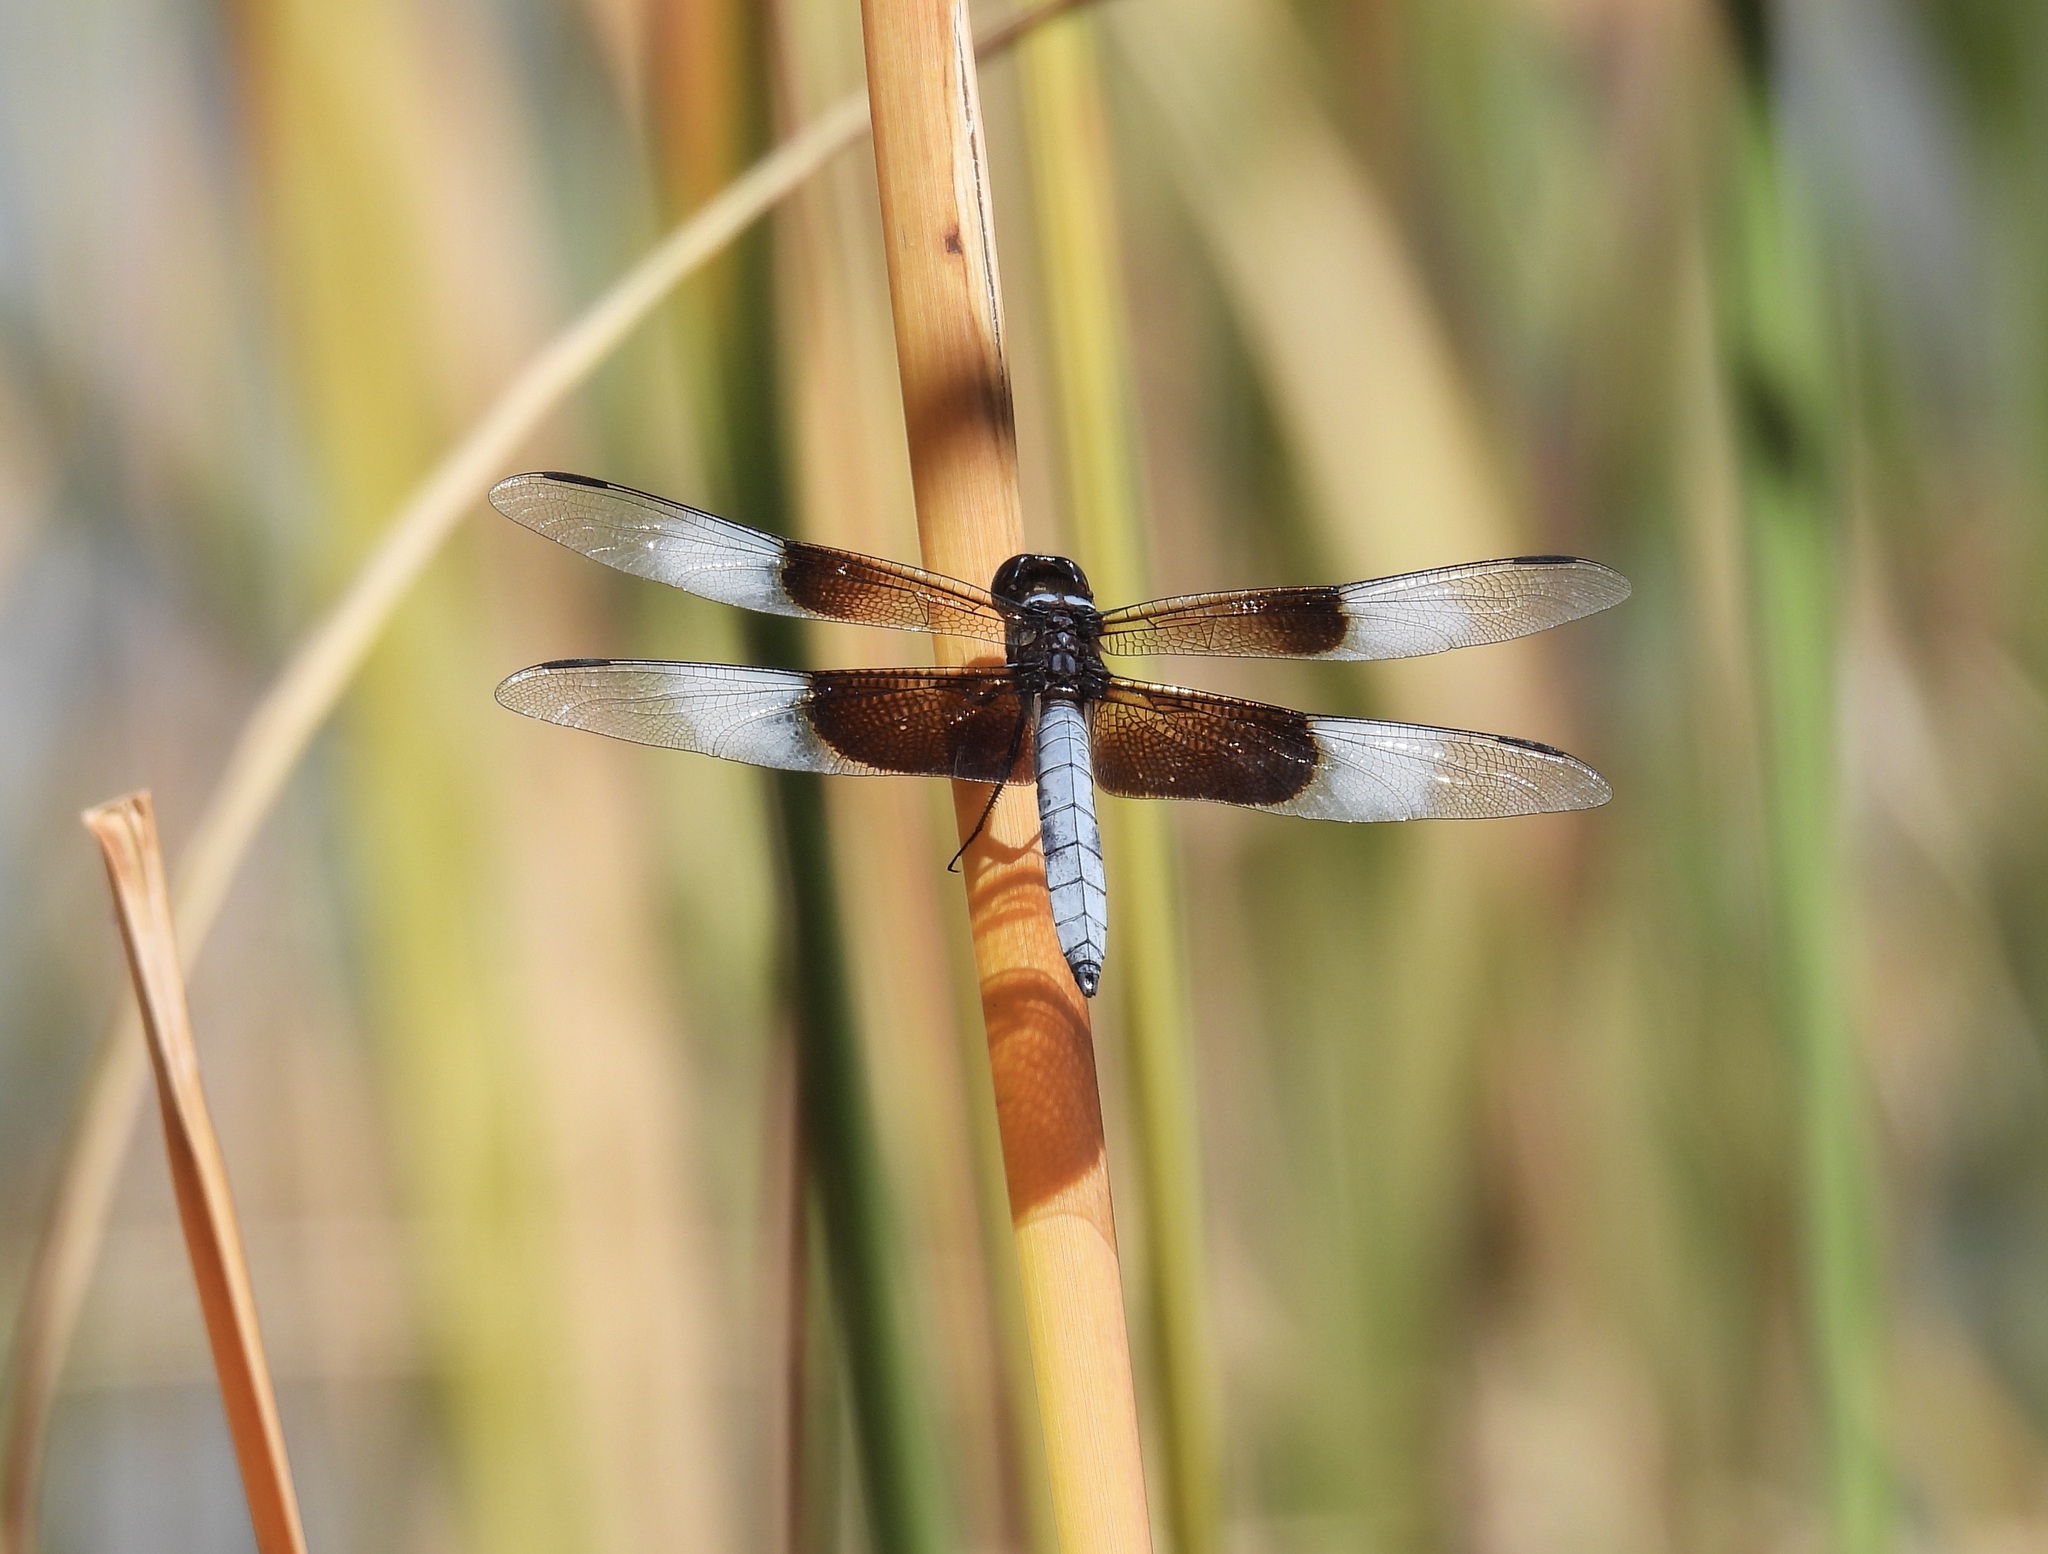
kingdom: Animalia
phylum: Arthropoda
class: Insecta
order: Odonata
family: Libellulidae
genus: Libellula
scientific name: Libellula luctuosa
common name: Widow skimmer
